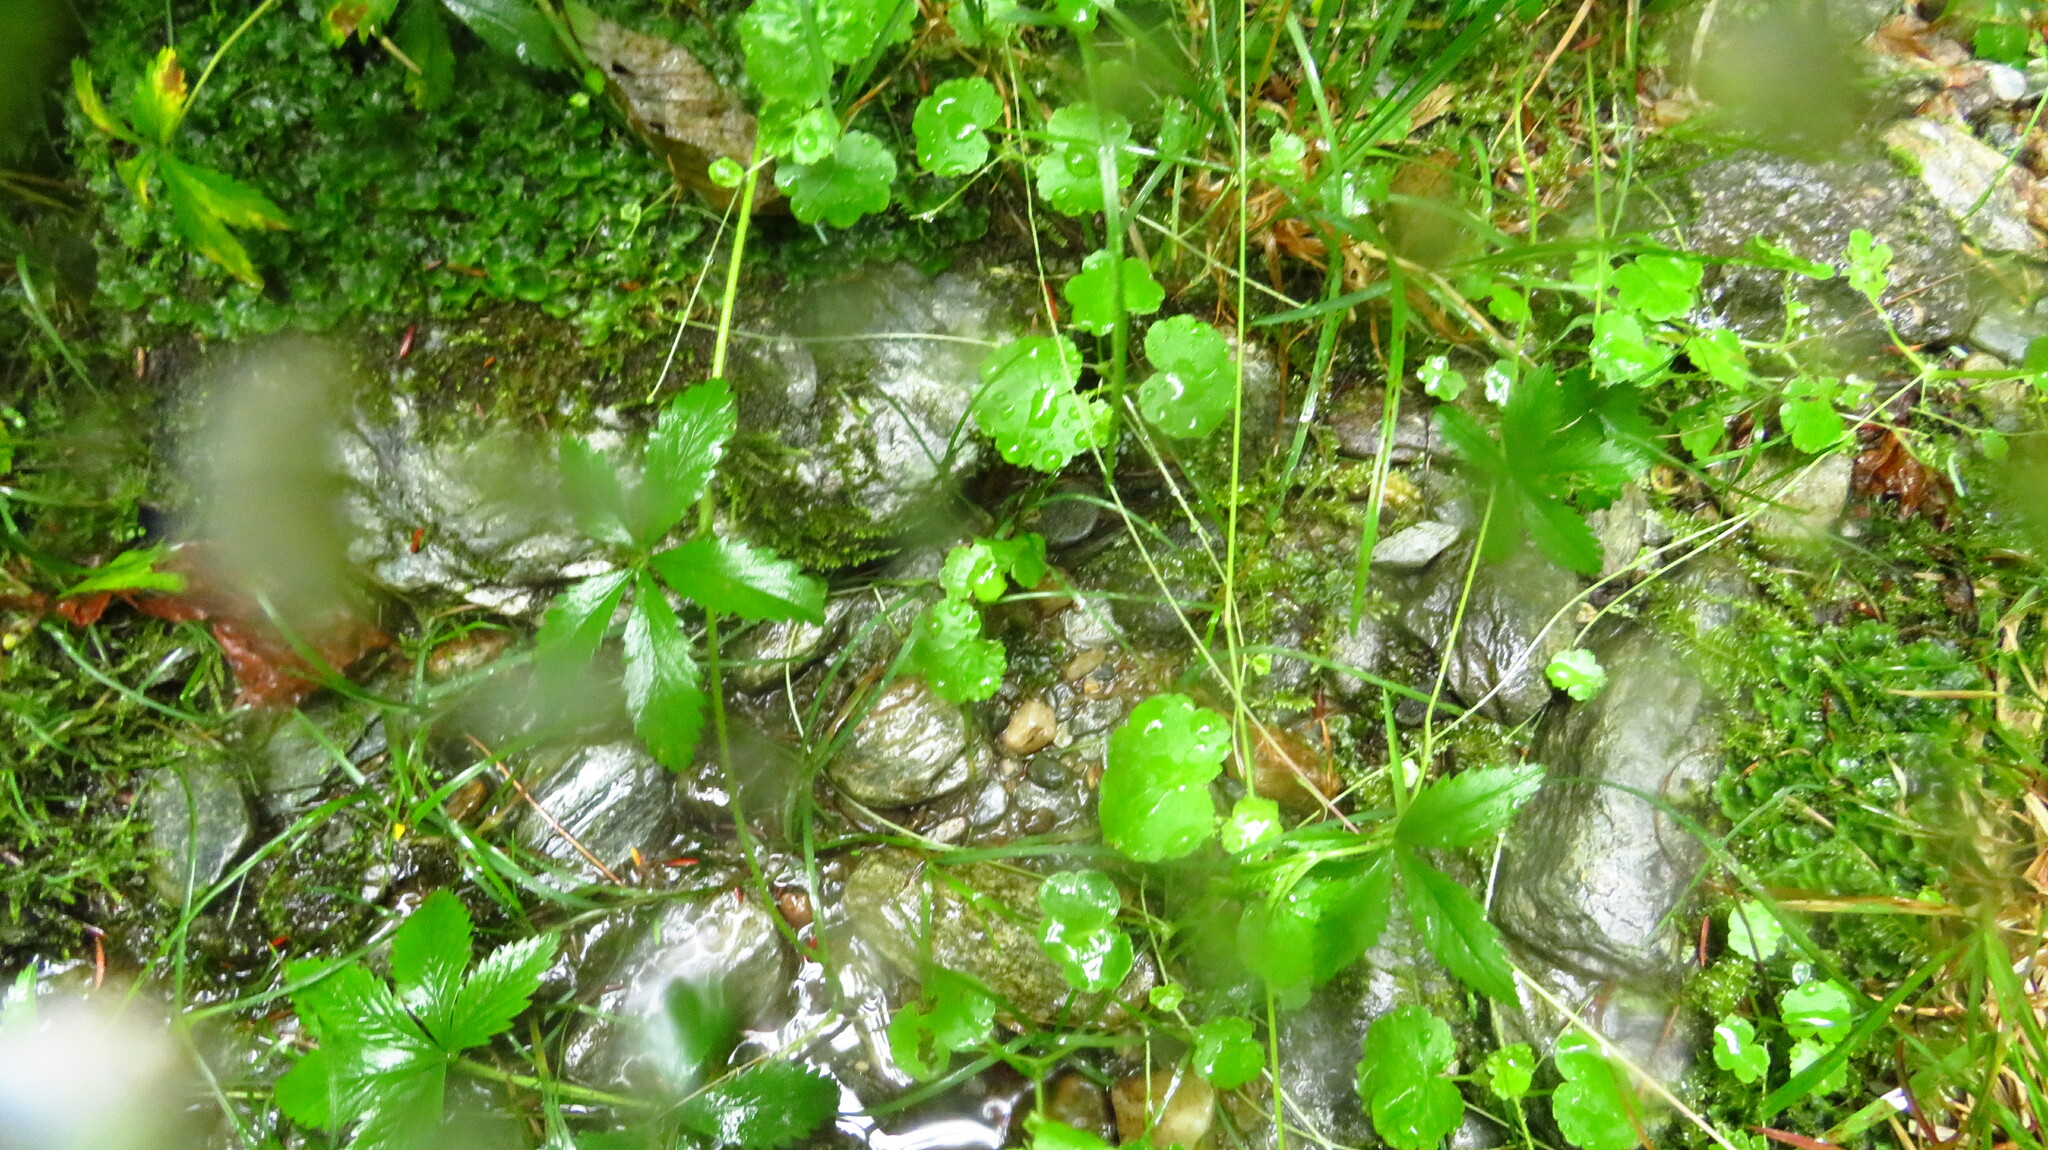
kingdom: Plantae
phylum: Tracheophyta
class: Magnoliopsida
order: Apiales
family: Araliaceae
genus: Hydrocotyle
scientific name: Hydrocotyle americana
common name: American water-pennywort
